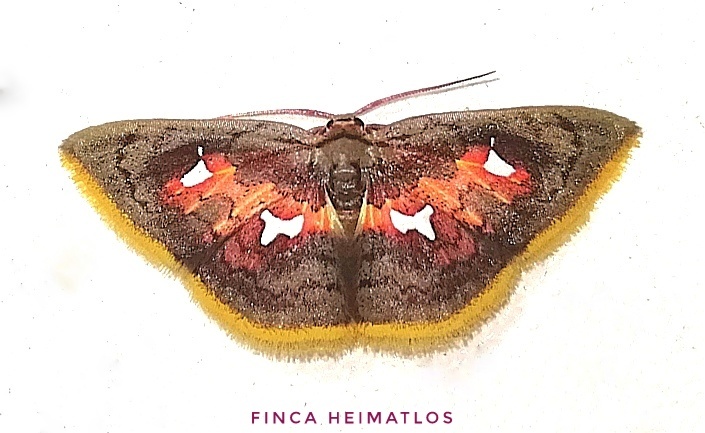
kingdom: Animalia
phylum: Arthropoda
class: Insecta
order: Lepidoptera
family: Geometridae
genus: Tricentra
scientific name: Tricentra quadrigata
